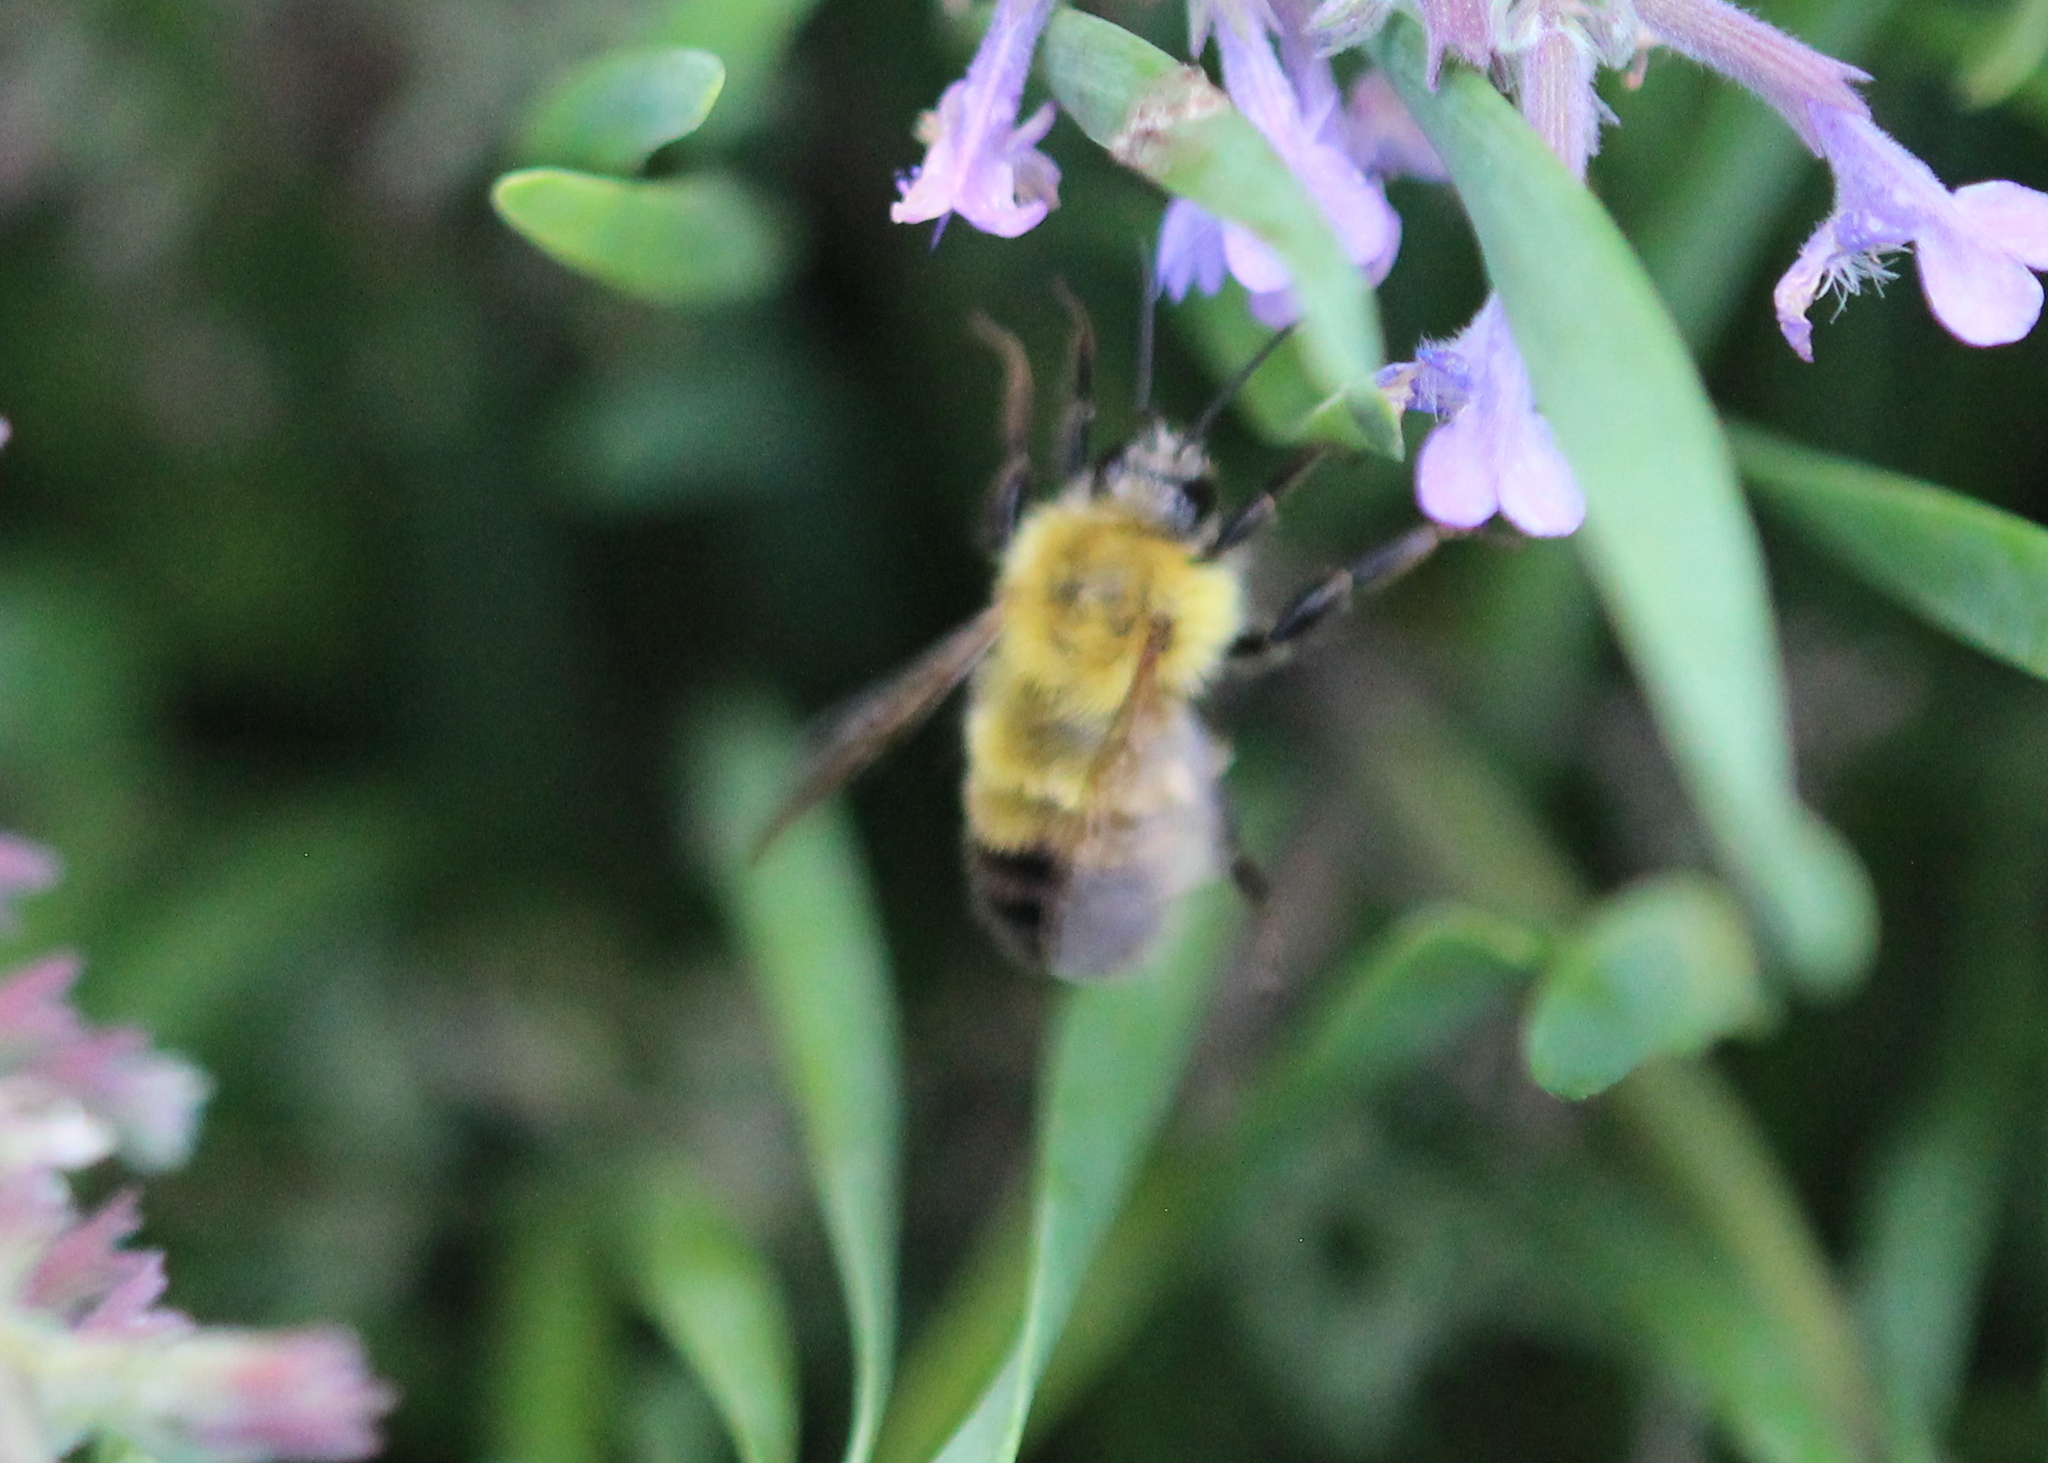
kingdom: Animalia
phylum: Arthropoda
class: Insecta
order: Hymenoptera
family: Apidae
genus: Bombus
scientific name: Bombus perplexus
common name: Confusing bumble bee
